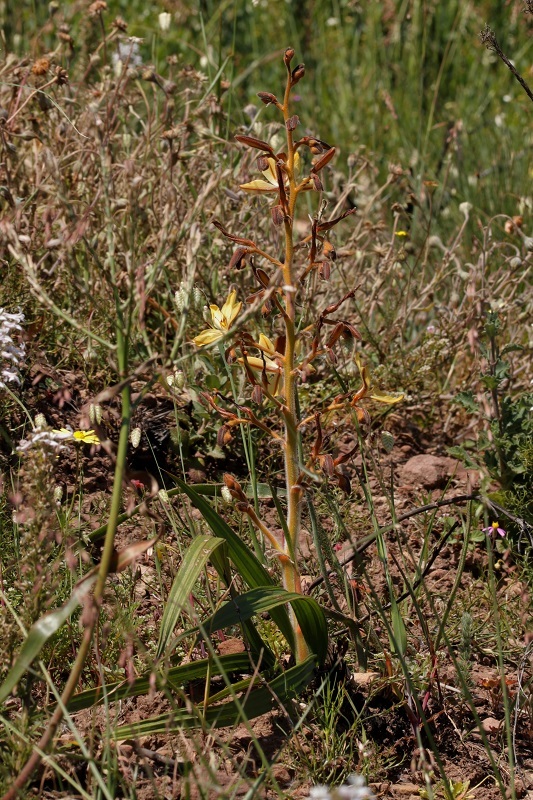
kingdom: Plantae
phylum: Tracheophyta
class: Liliopsida
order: Commelinales
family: Haemodoraceae
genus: Wachendorfia
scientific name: Wachendorfia paniculata
